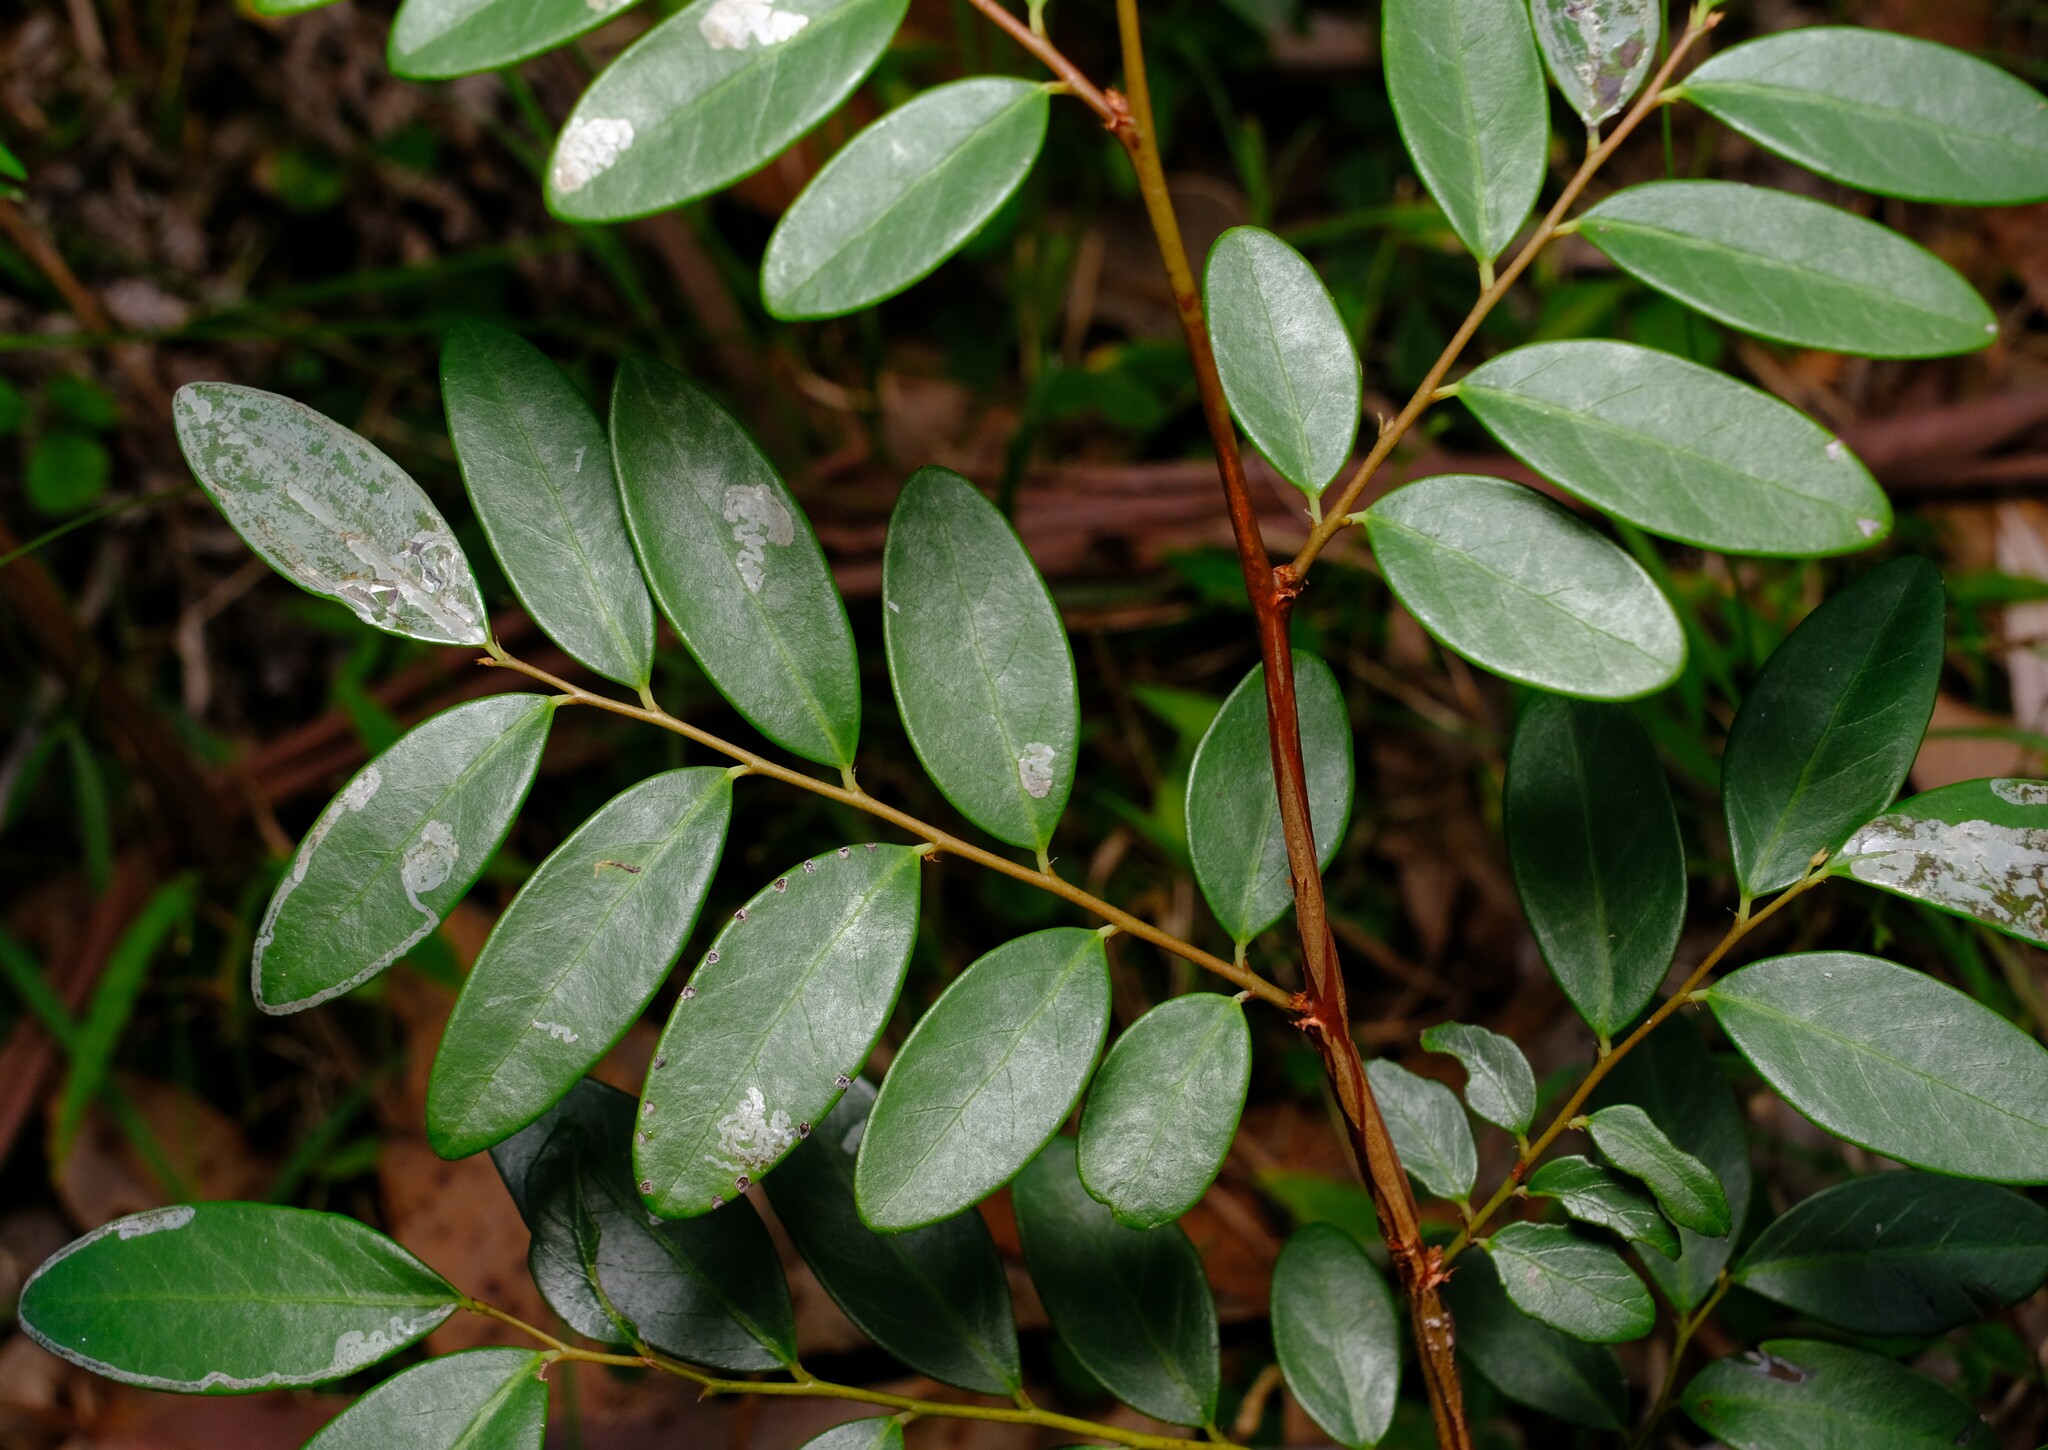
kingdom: Plantae
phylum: Tracheophyta
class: Magnoliopsida
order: Malpighiales
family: Phyllanthaceae
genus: Breynia
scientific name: Breynia oblongifolia
